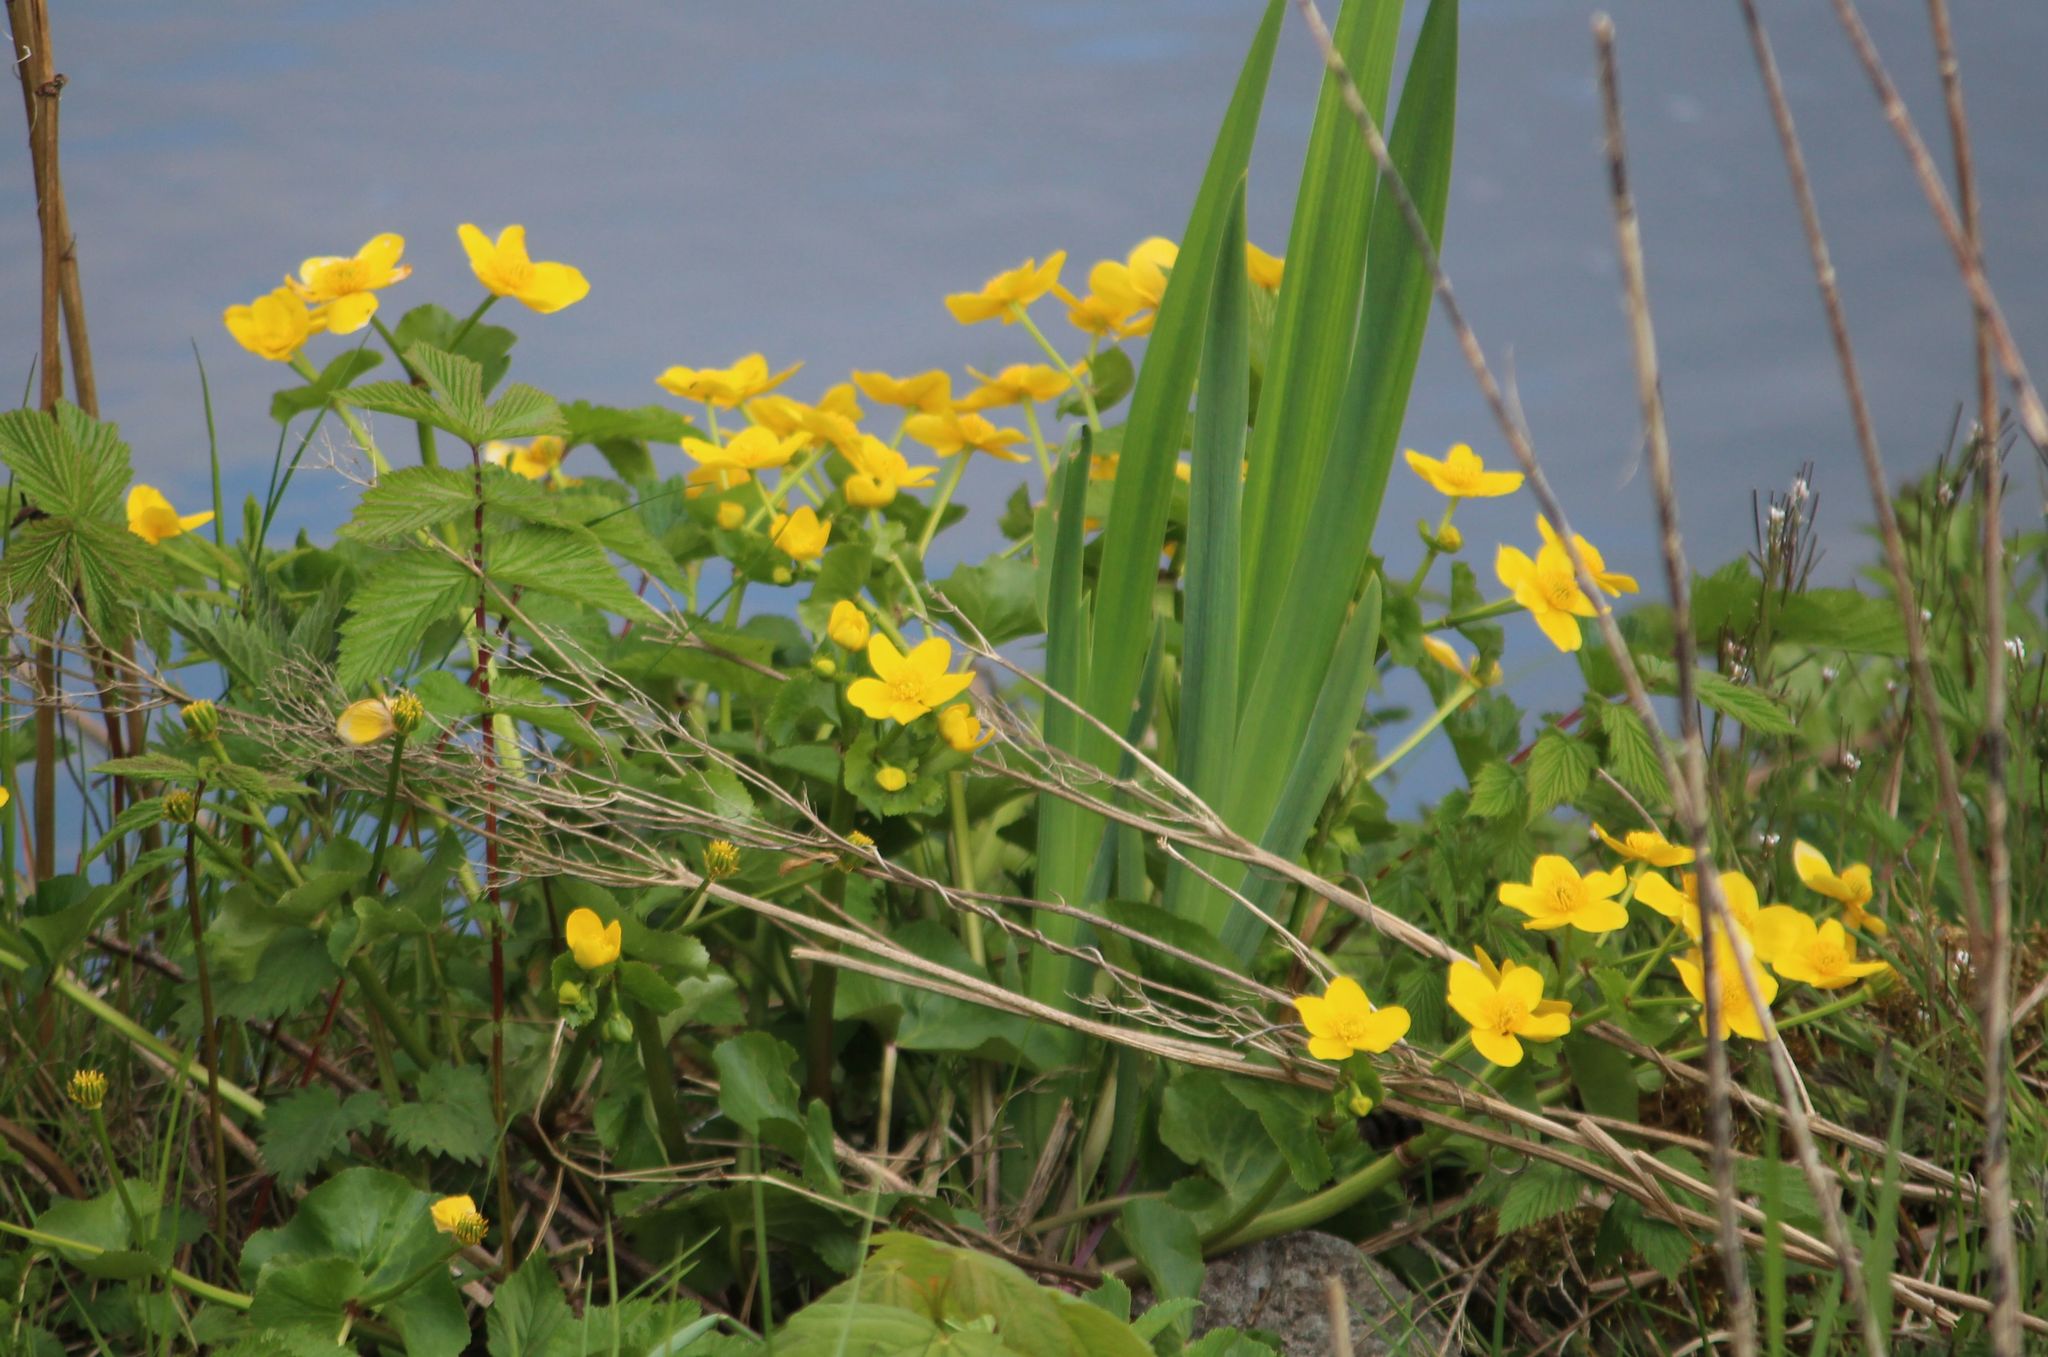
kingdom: Plantae
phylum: Tracheophyta
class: Magnoliopsida
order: Ranunculales
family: Ranunculaceae
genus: Caltha
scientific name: Caltha palustris
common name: Marsh marigold
